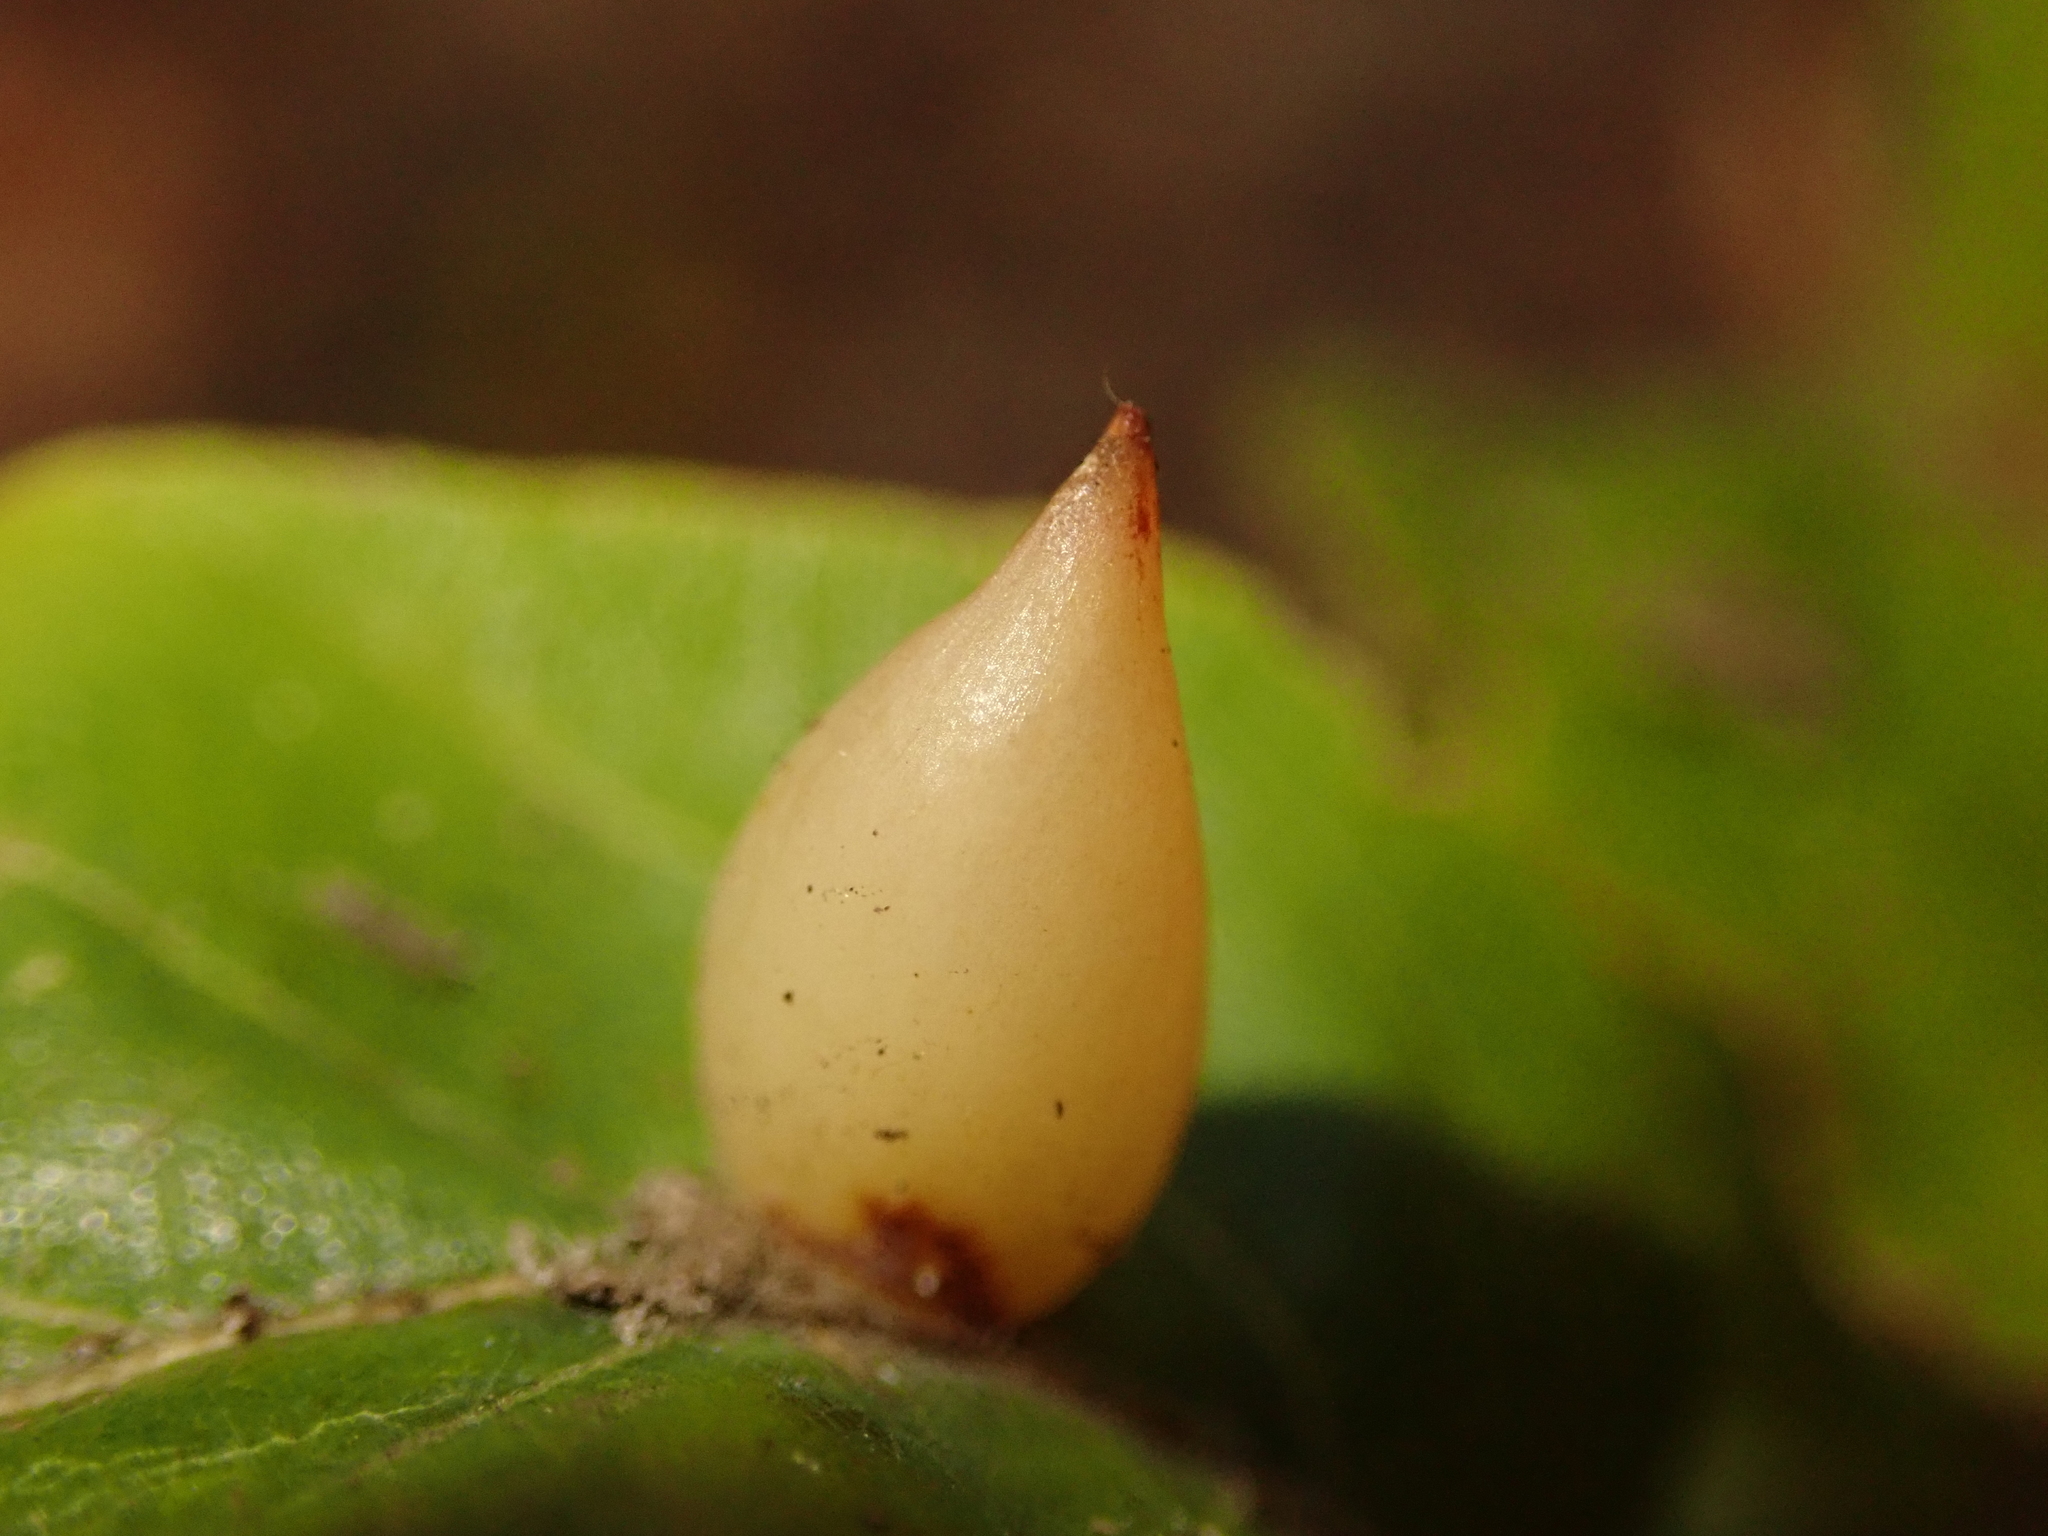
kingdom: Animalia
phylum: Arthropoda
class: Insecta
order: Diptera
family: Cecidomyiidae
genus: Mikiola
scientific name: Mikiola fagi
